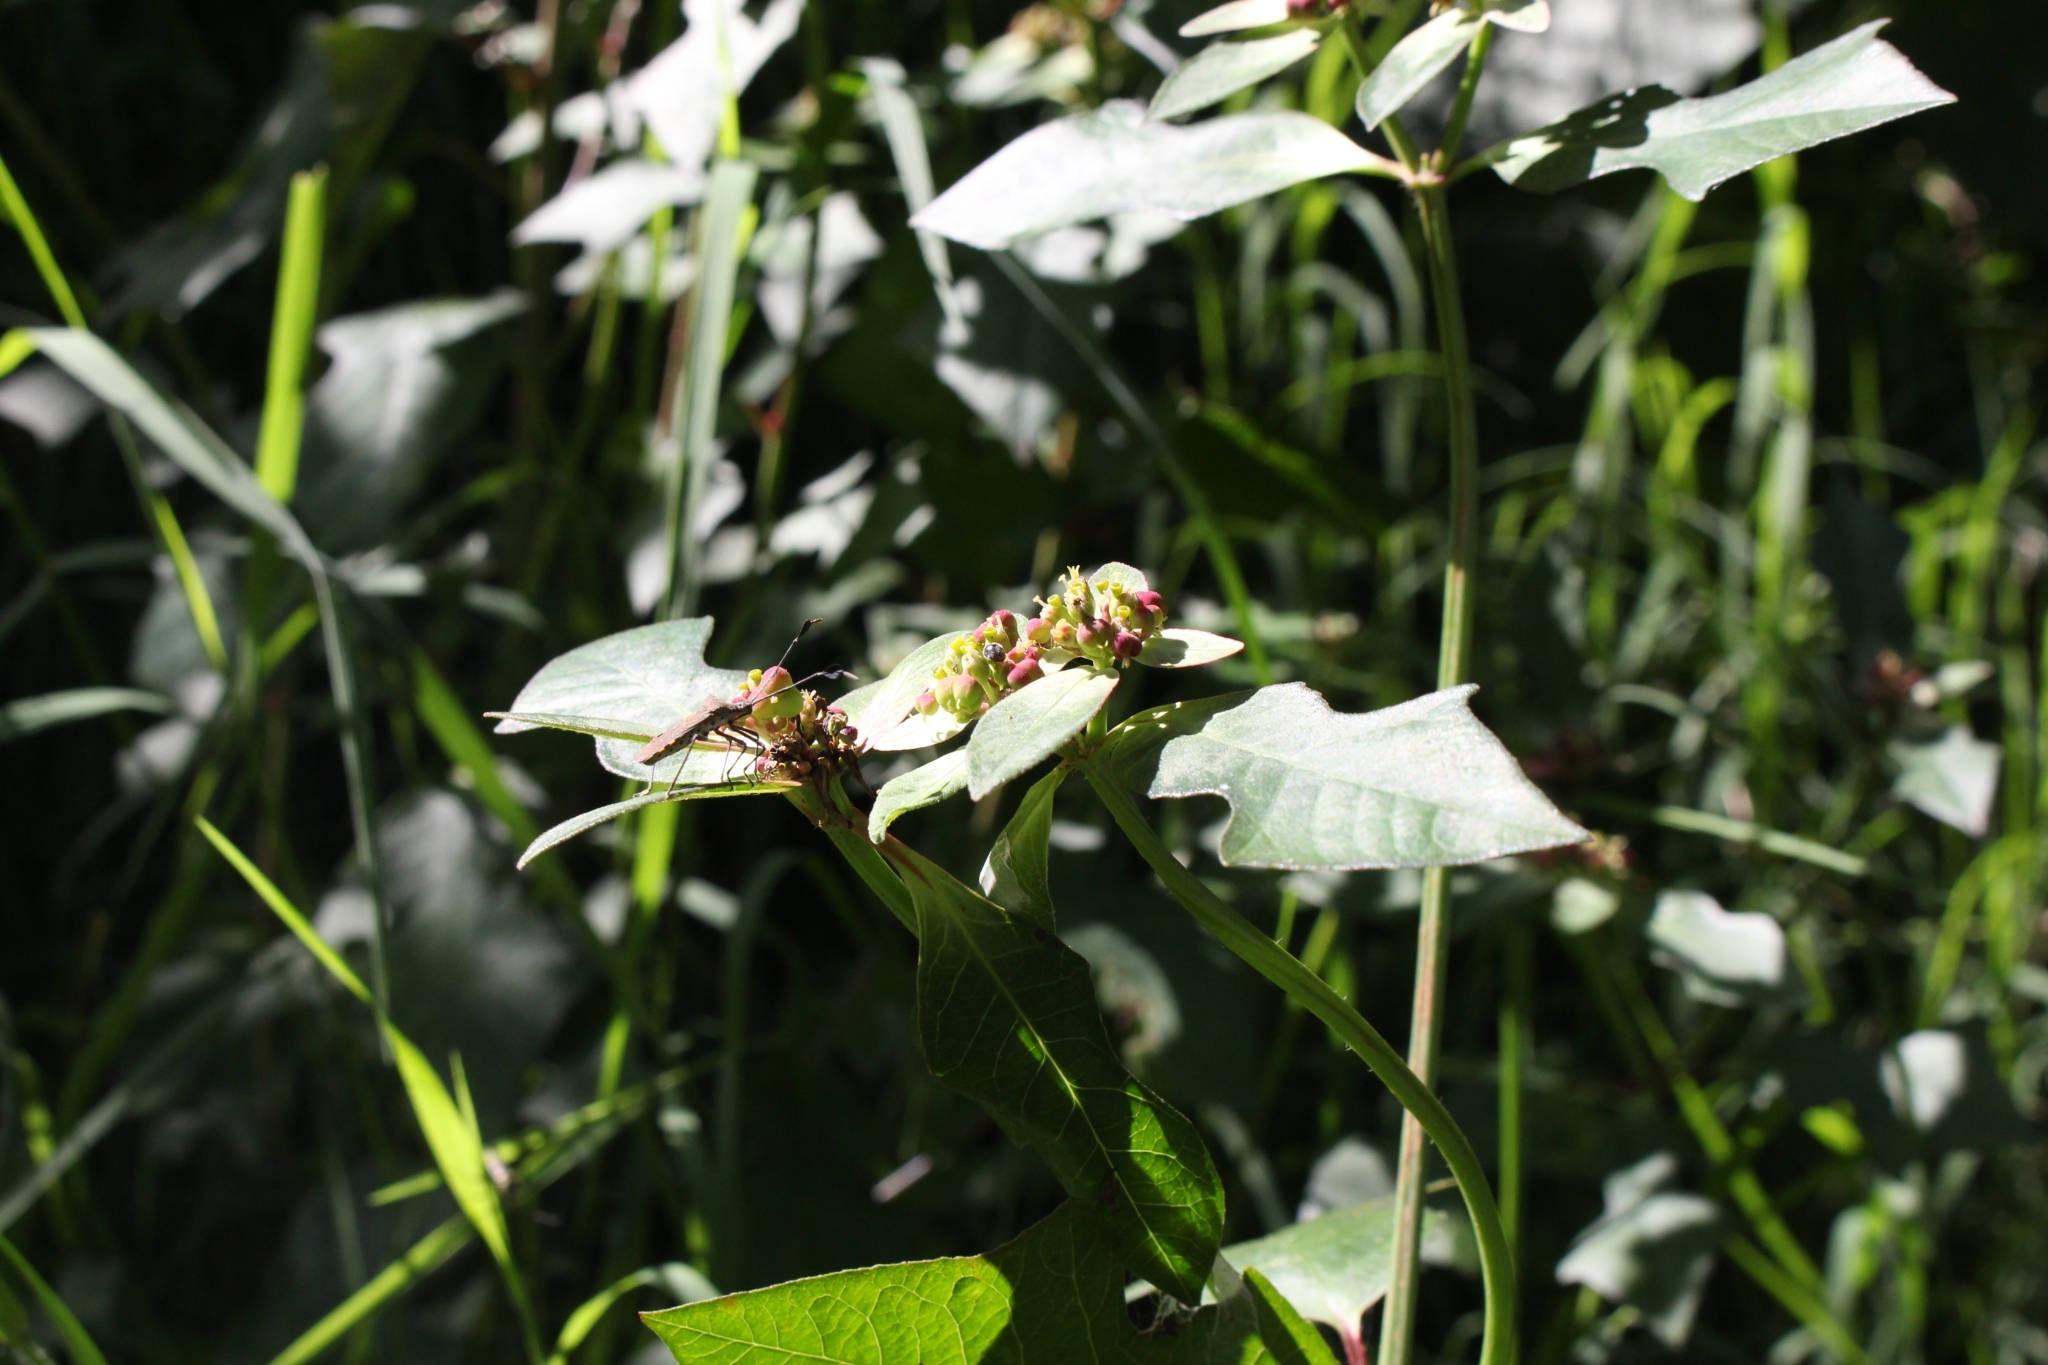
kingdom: Plantae
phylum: Tracheophyta
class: Magnoliopsida
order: Malpighiales
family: Euphorbiaceae
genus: Euphorbia
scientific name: Euphorbia heterophylla
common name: Mexican fireplant
